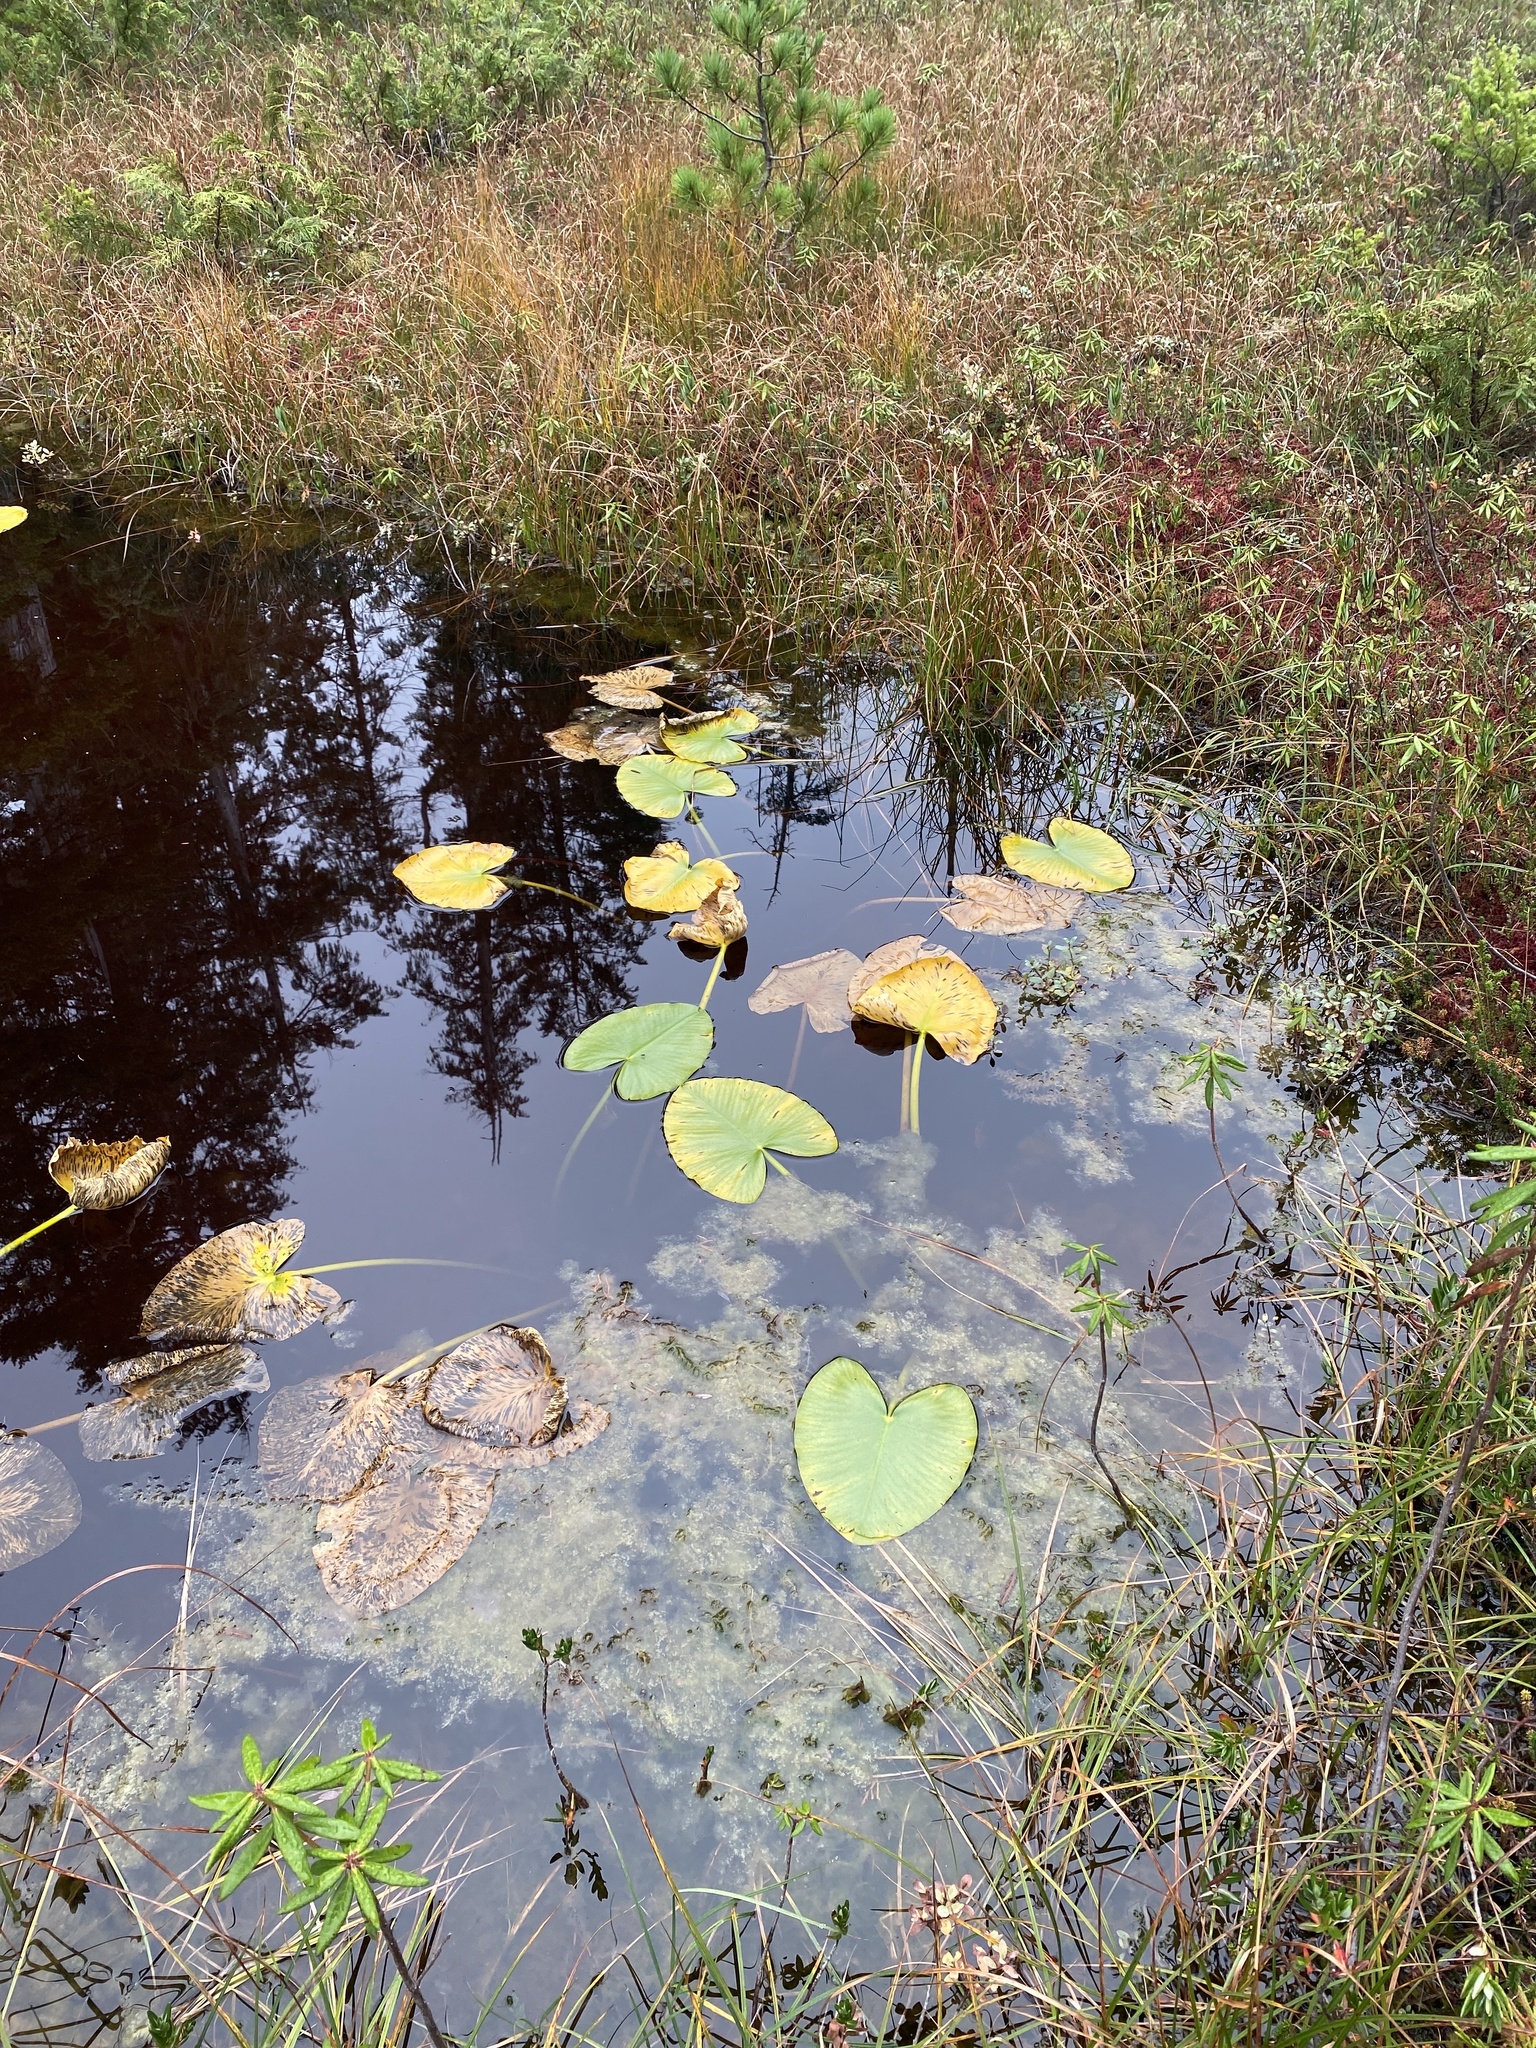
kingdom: Plantae
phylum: Tracheophyta
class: Magnoliopsida
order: Nymphaeales
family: Nymphaeaceae
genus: Nuphar
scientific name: Nuphar polysepala
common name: Rocky mountain cow-lily
